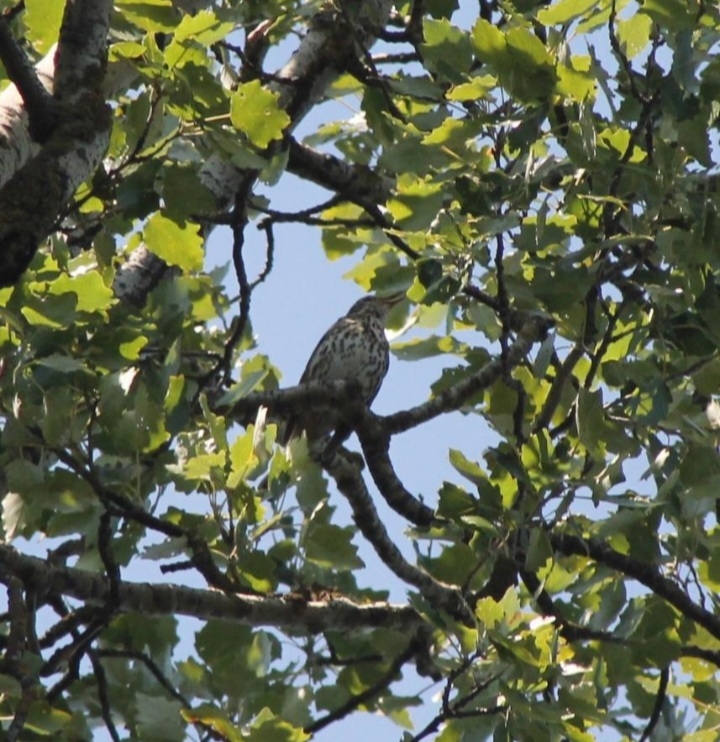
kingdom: Animalia
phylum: Chordata
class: Aves
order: Passeriformes
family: Turdidae
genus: Turdus
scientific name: Turdus philomelos
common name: Song thrush
